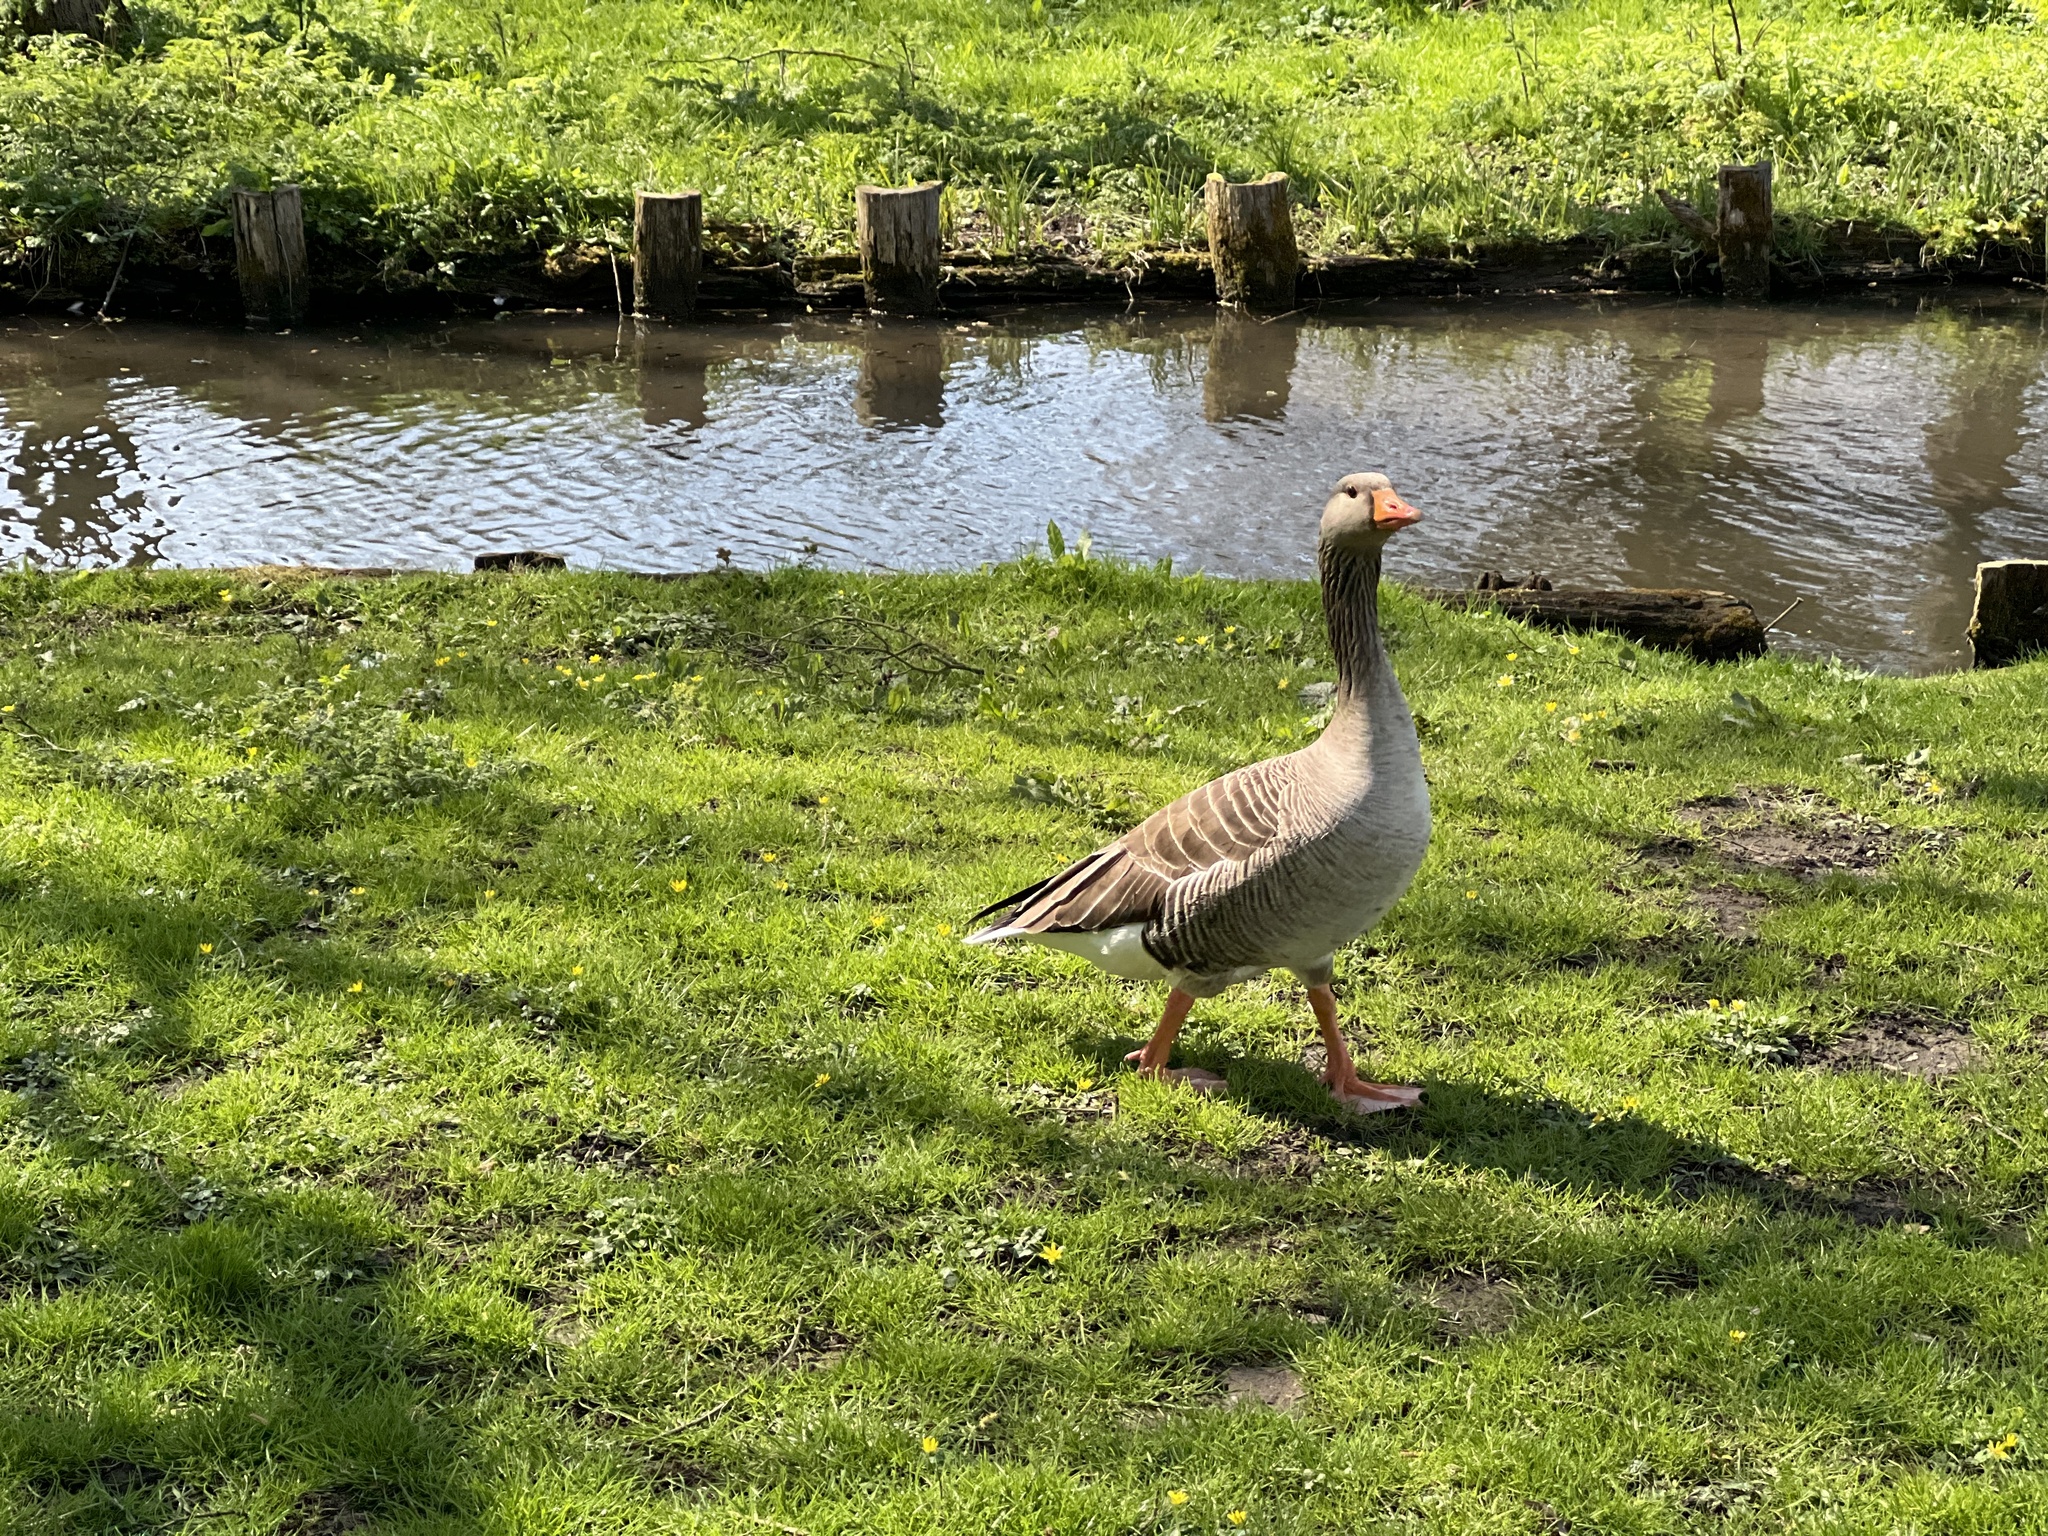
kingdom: Animalia
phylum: Chordata
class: Aves
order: Anseriformes
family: Anatidae
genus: Anser
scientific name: Anser anser
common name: Greylag goose
